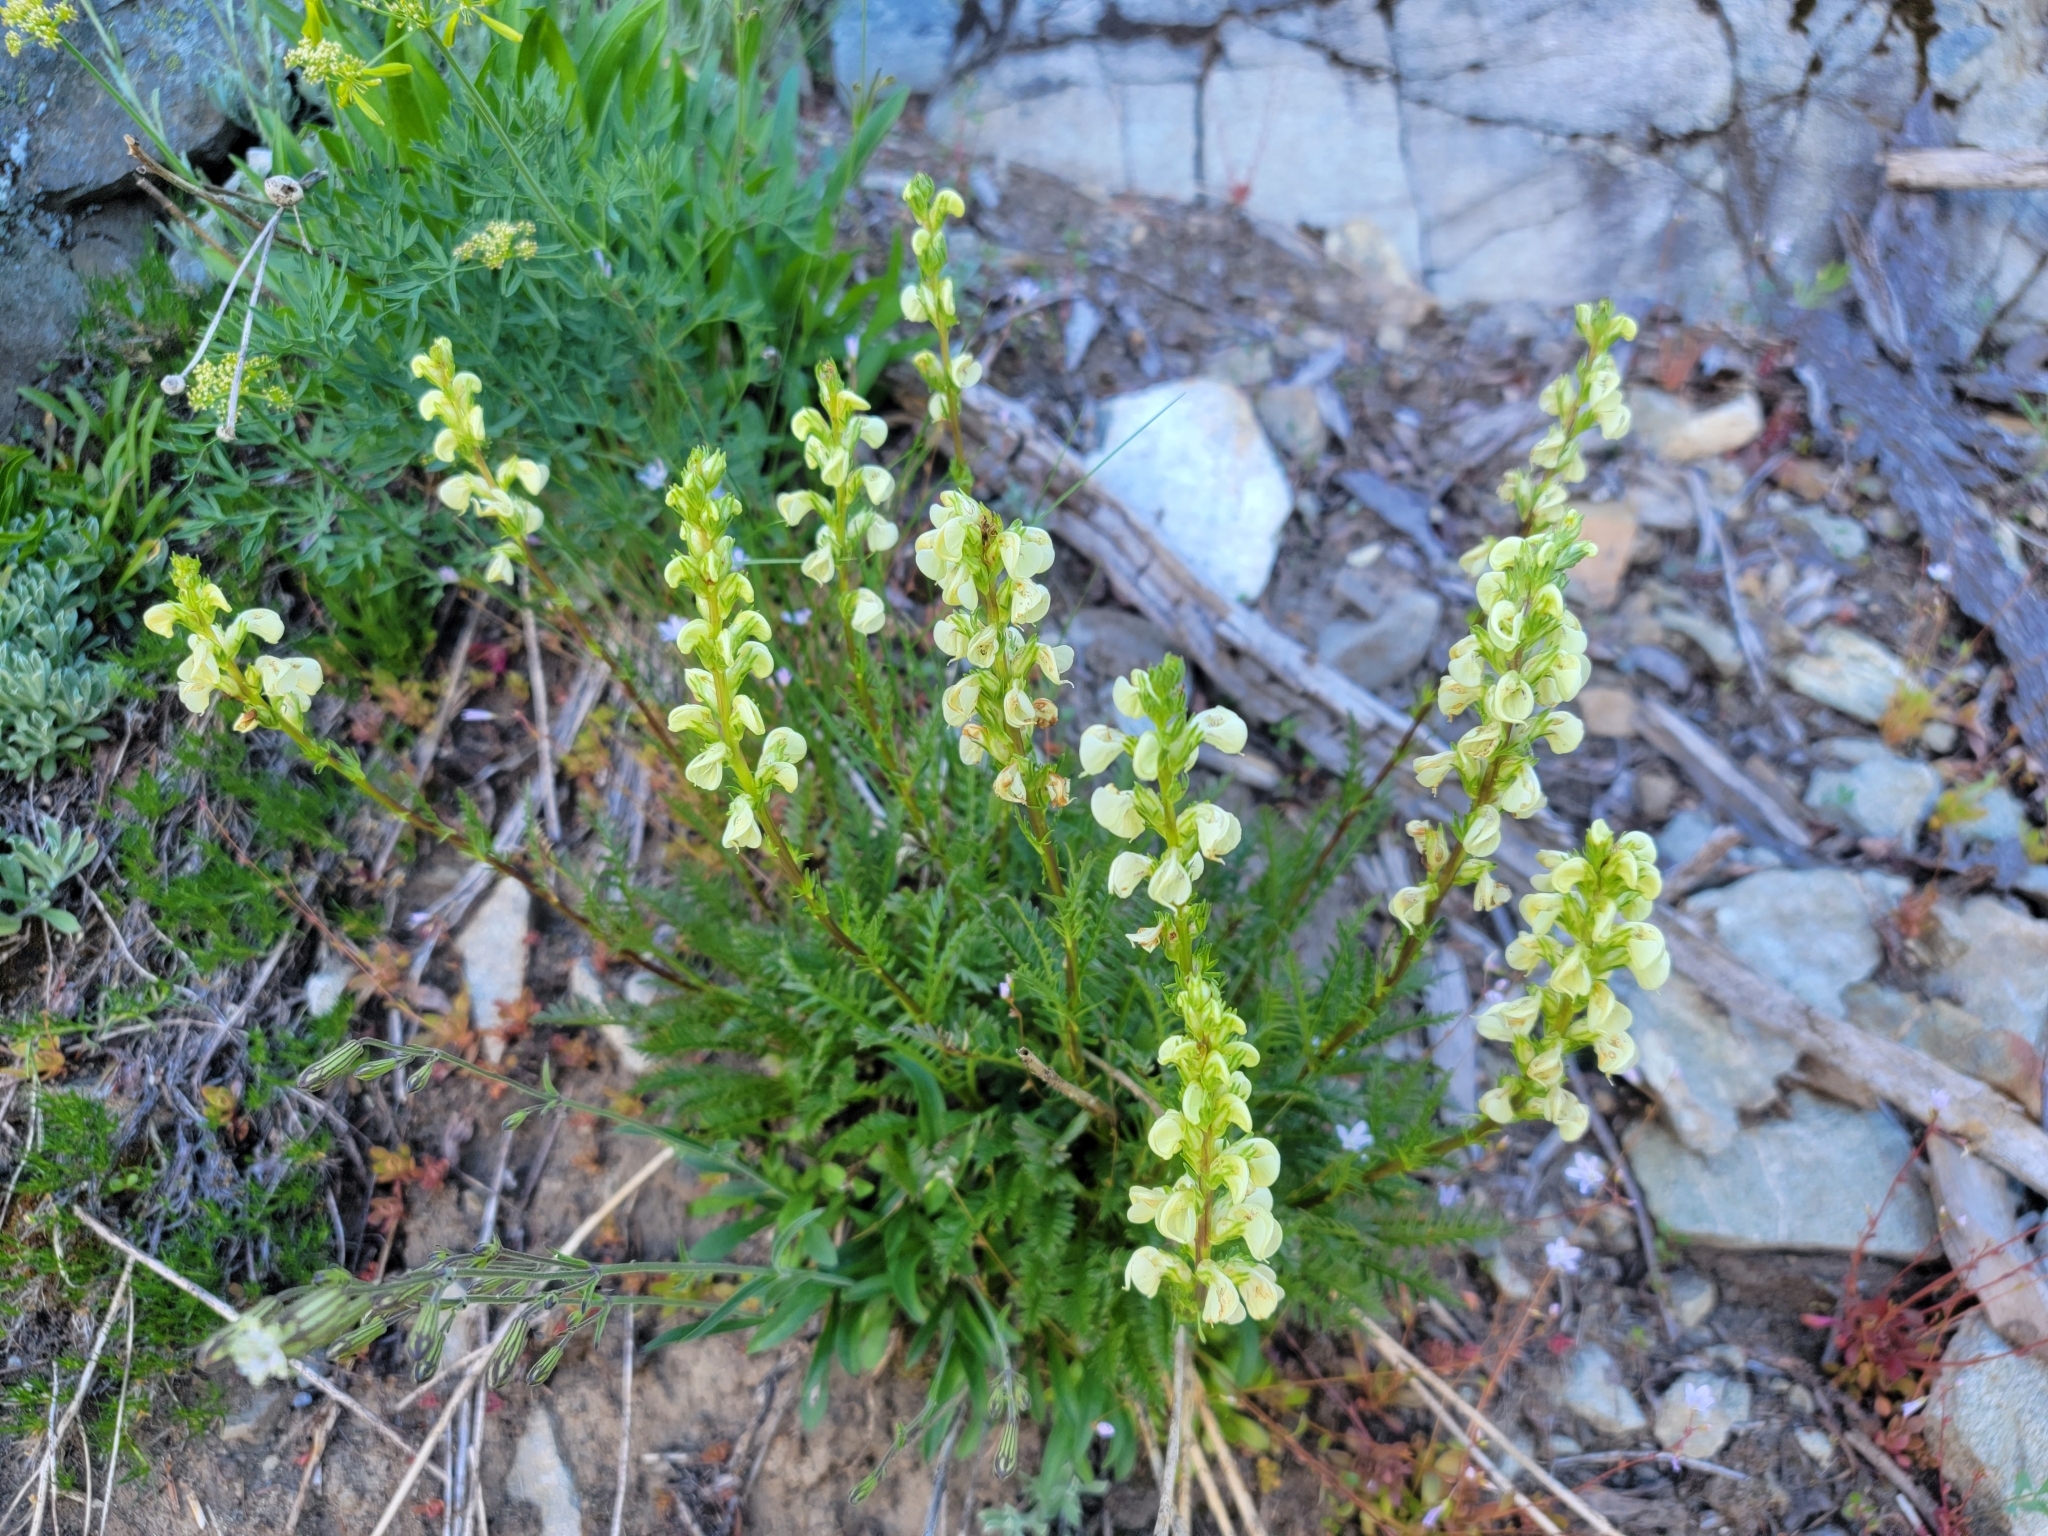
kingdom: Plantae
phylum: Tracheophyta
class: Magnoliopsida
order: Lamiales
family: Orobanchaceae
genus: Pedicularis
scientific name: Pedicularis contorta
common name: Coiled lousewort
